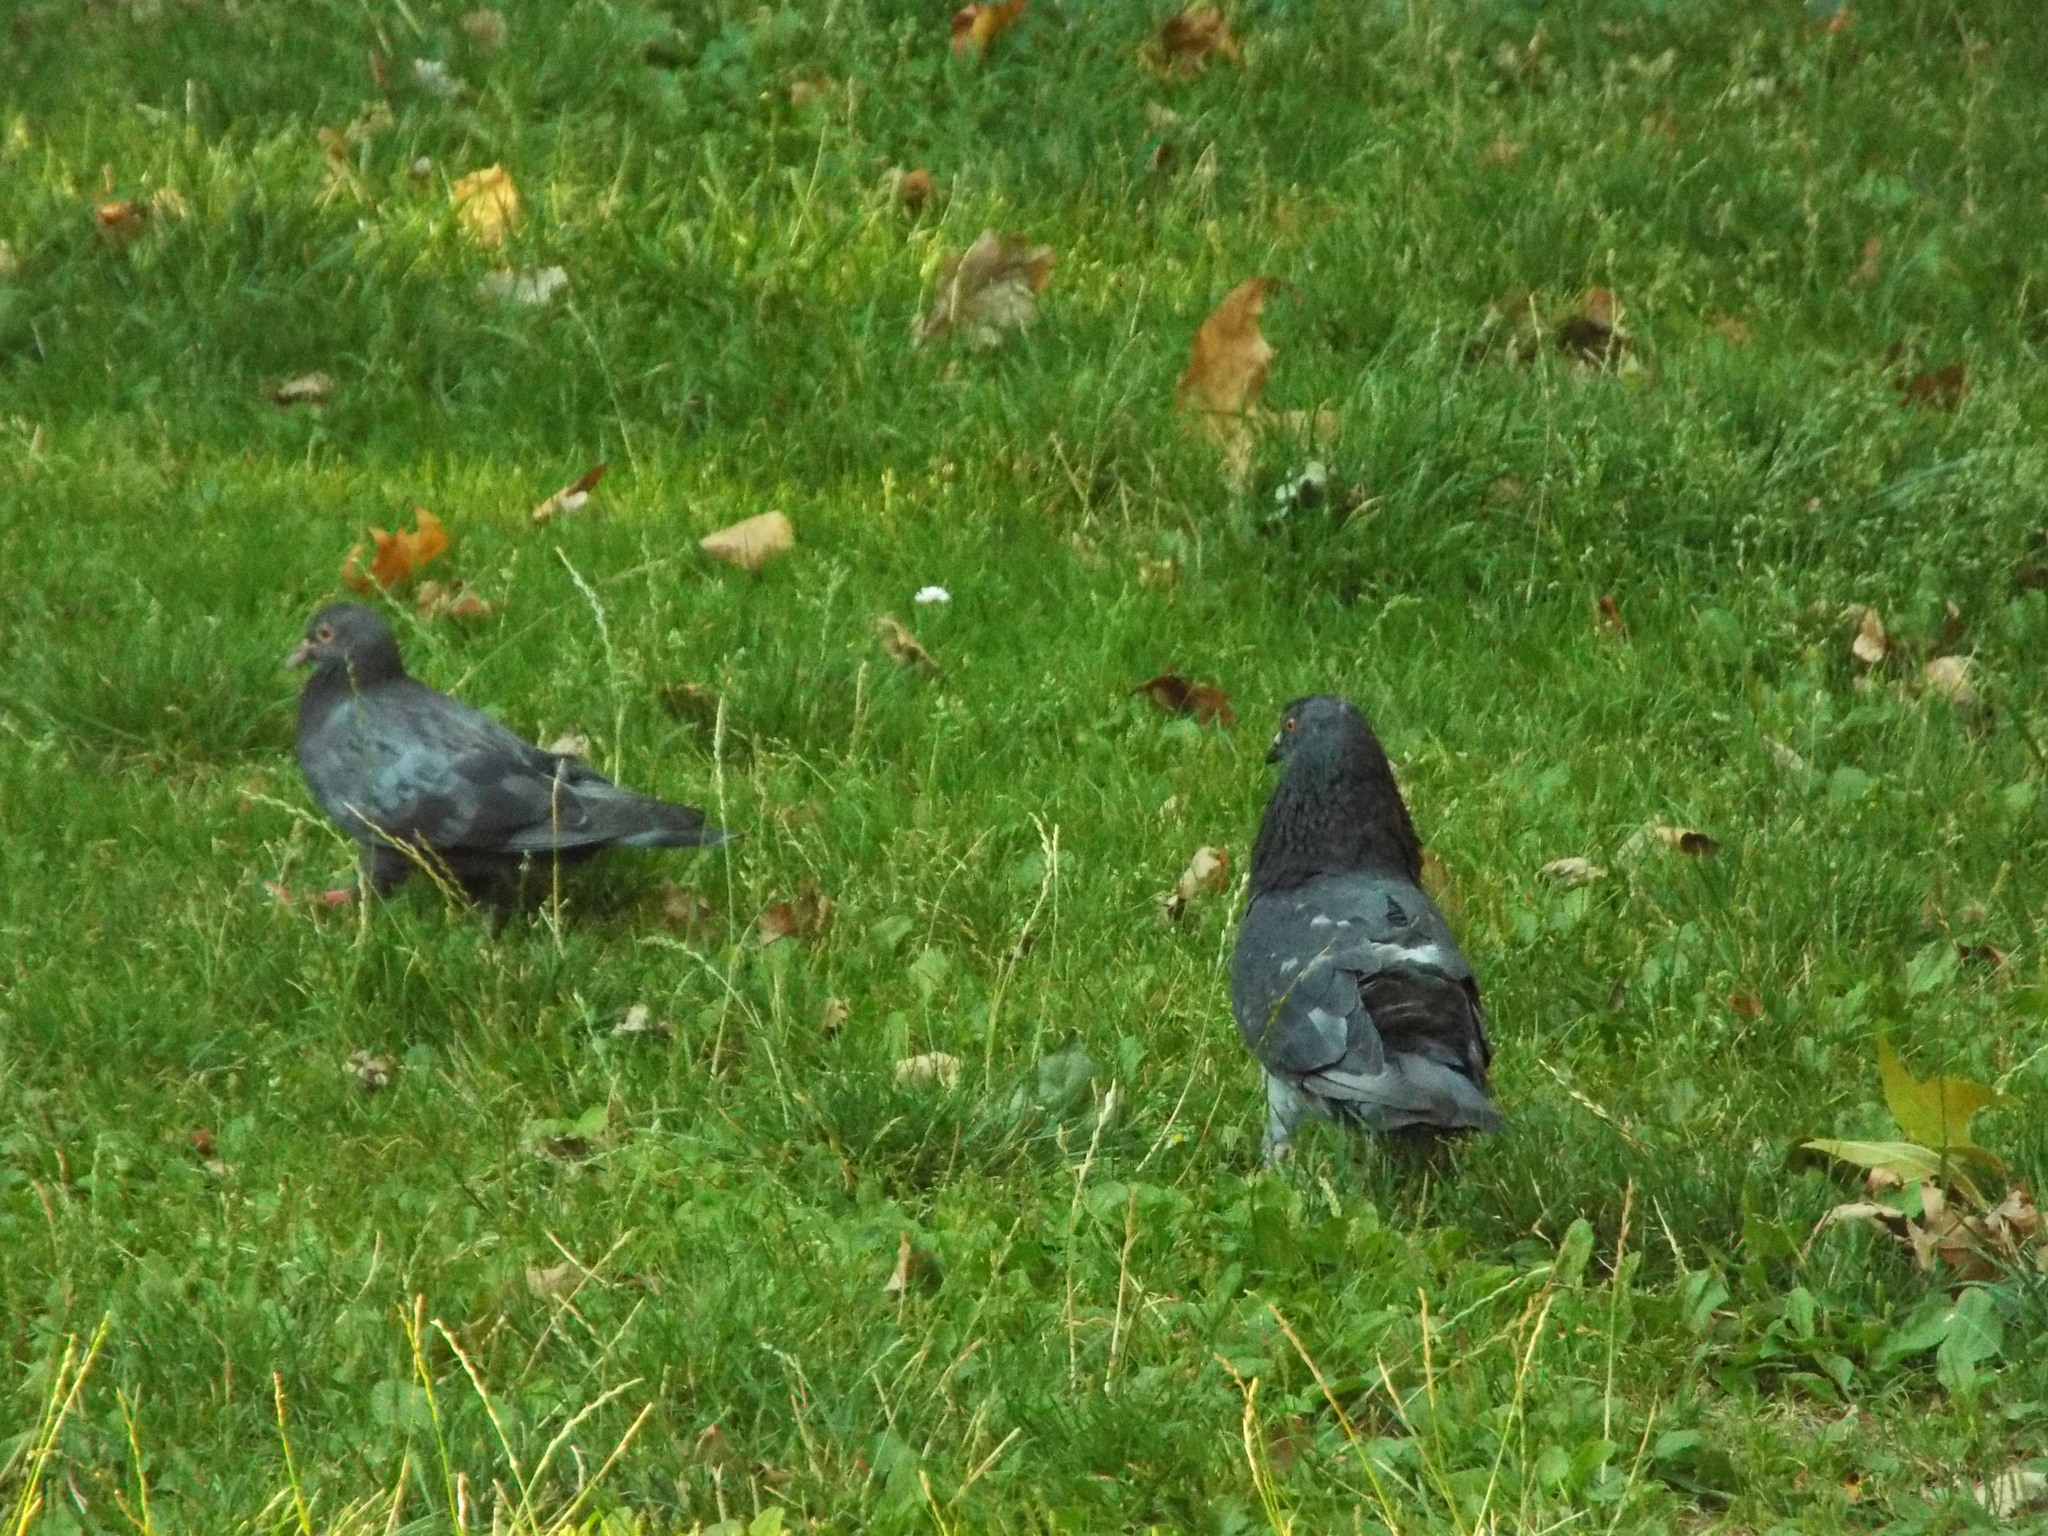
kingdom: Animalia
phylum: Chordata
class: Aves
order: Columbiformes
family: Columbidae
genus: Columba
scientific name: Columba livia
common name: Rock pigeon
